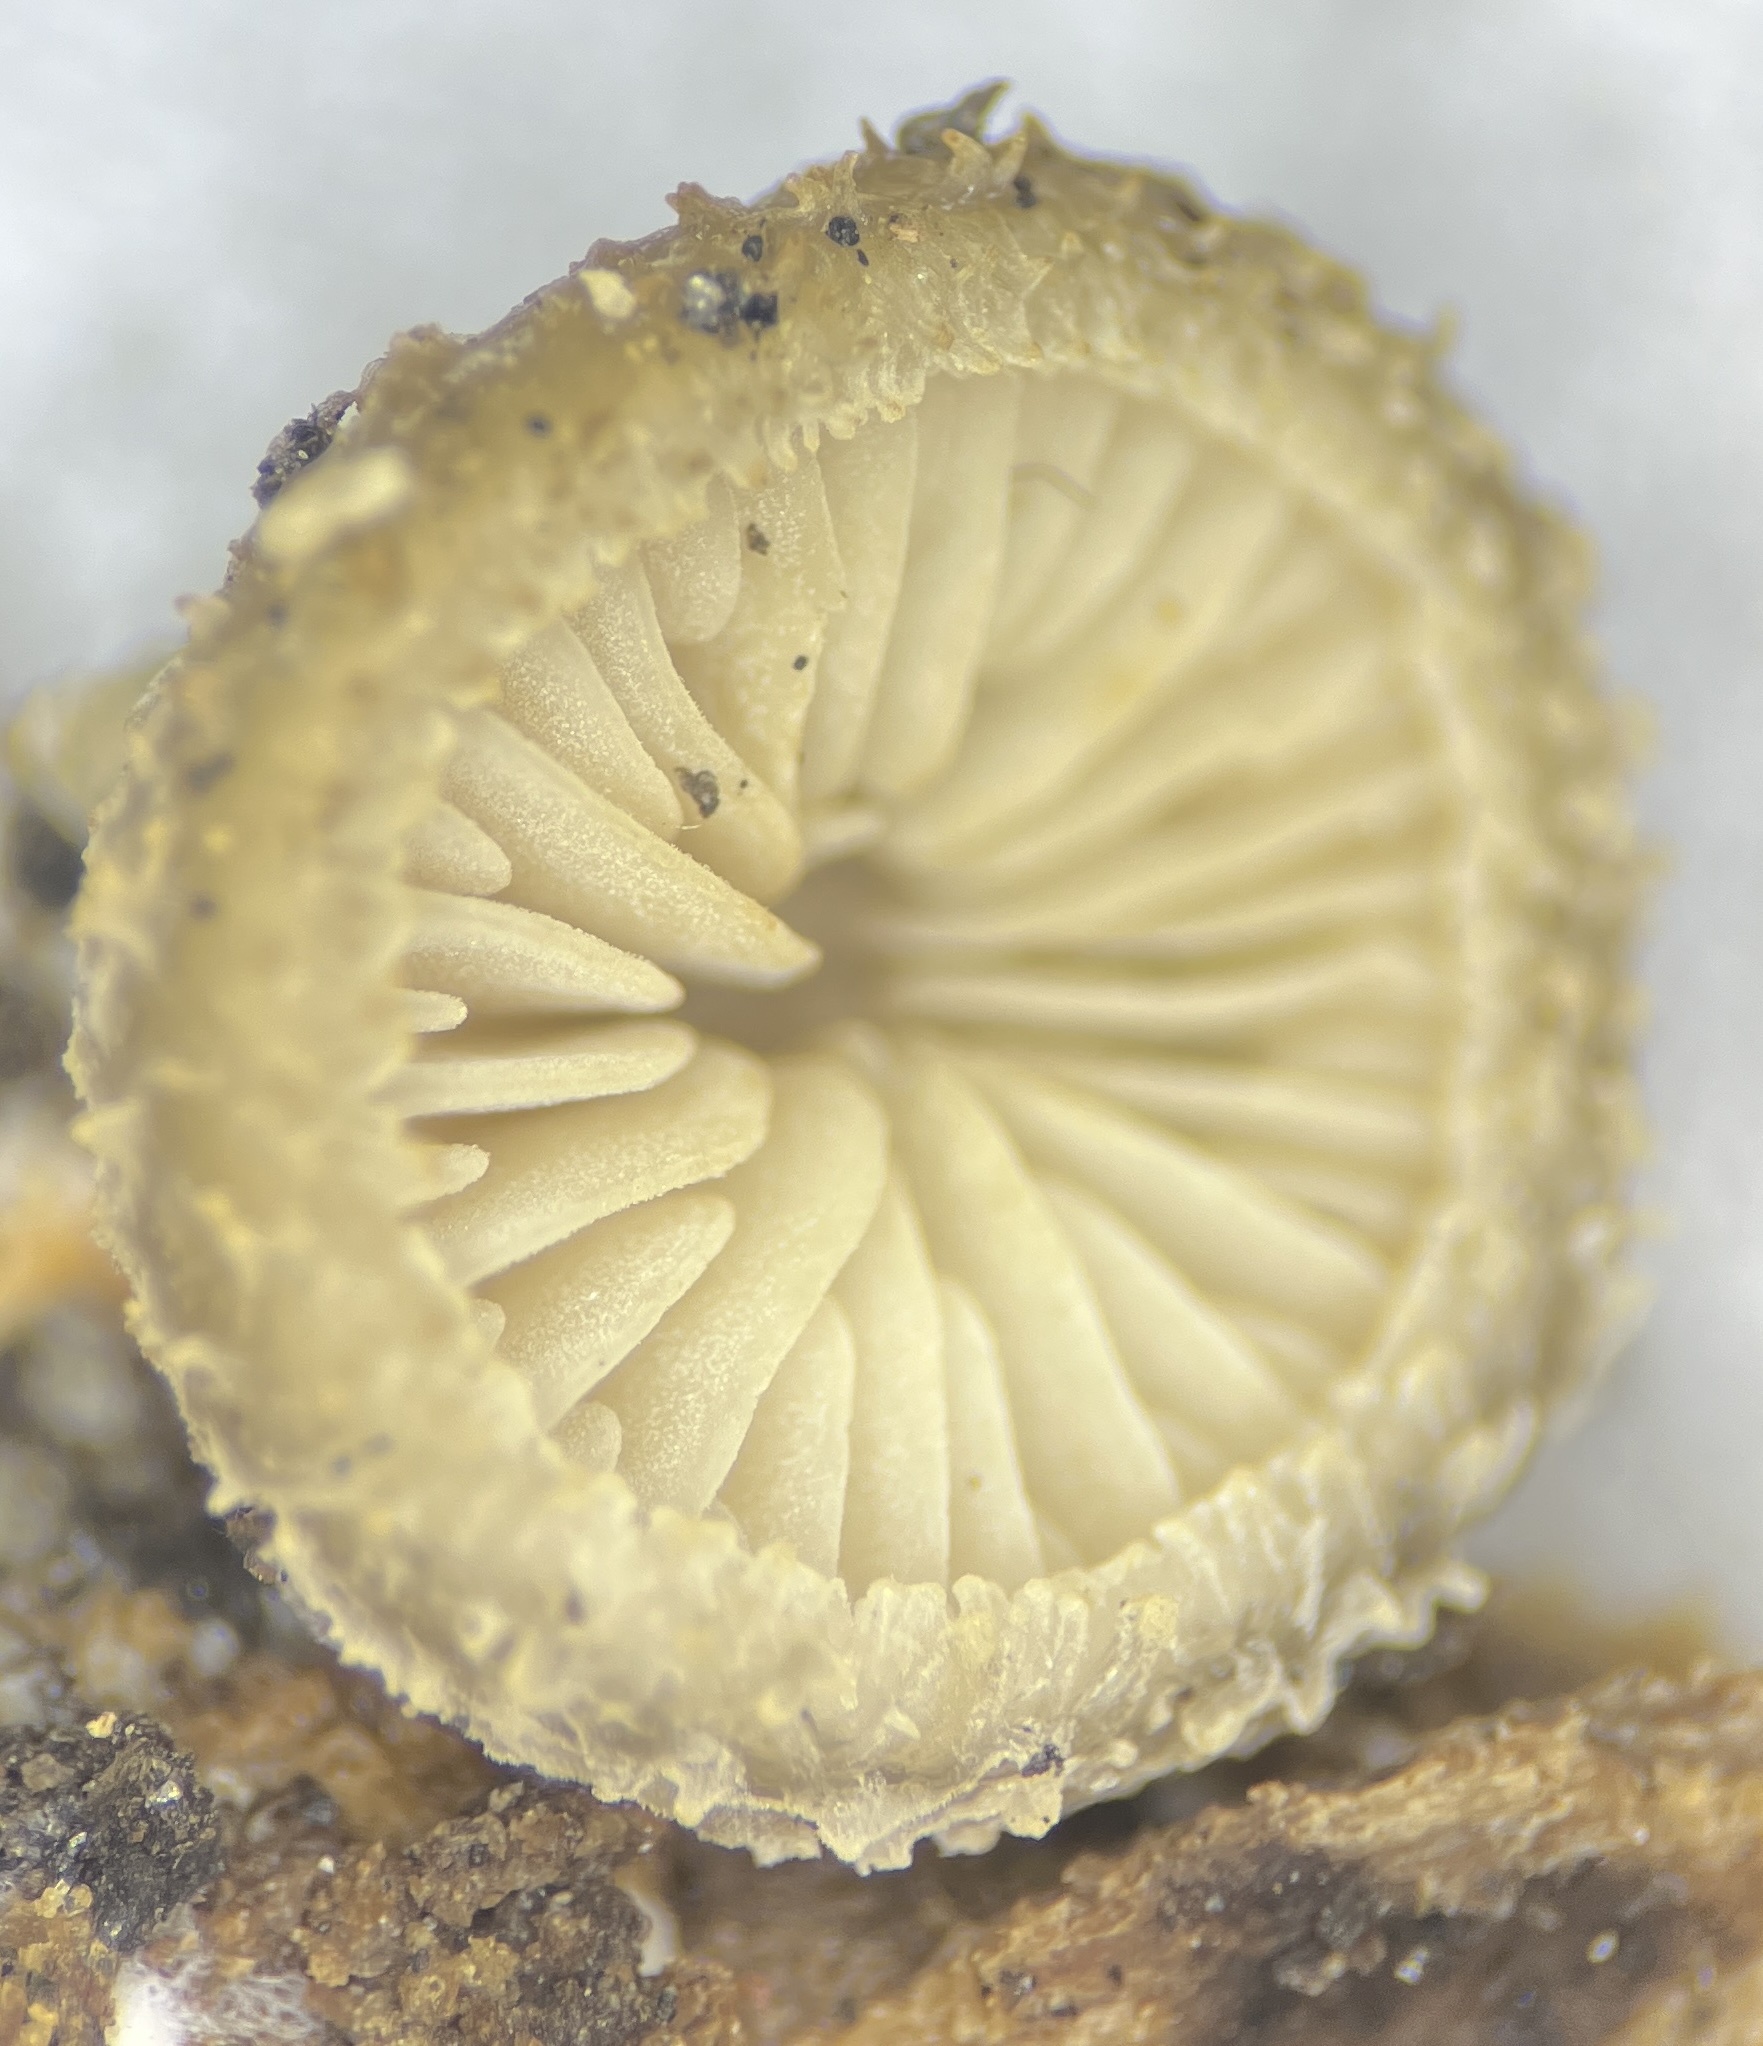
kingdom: Fungi
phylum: Basidiomycota
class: Agaricomycetes
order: Agaricales
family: Pleurotaceae
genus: Hohenbuehelia
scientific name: Hohenbuehelia mastrucata
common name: Woolly oyster
